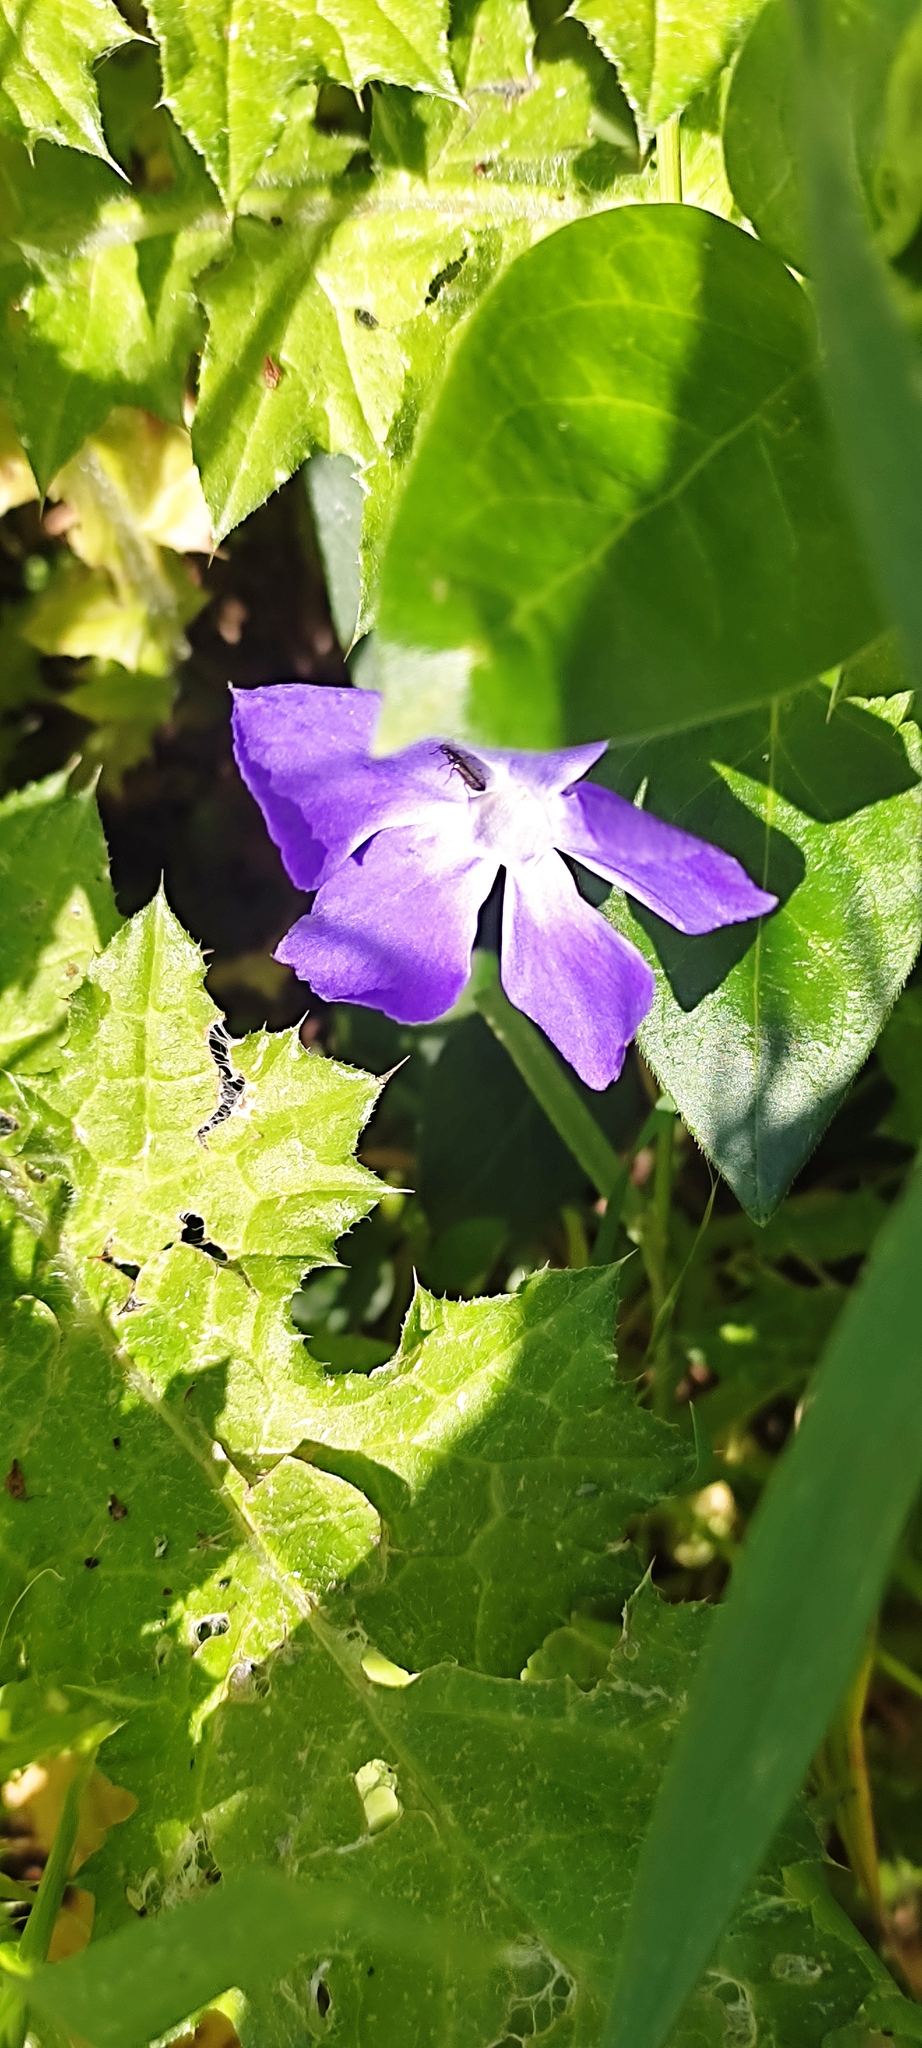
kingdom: Plantae
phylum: Tracheophyta
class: Magnoliopsida
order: Gentianales
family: Apocynaceae
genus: Vinca
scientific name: Vinca major
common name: Greater periwinkle
